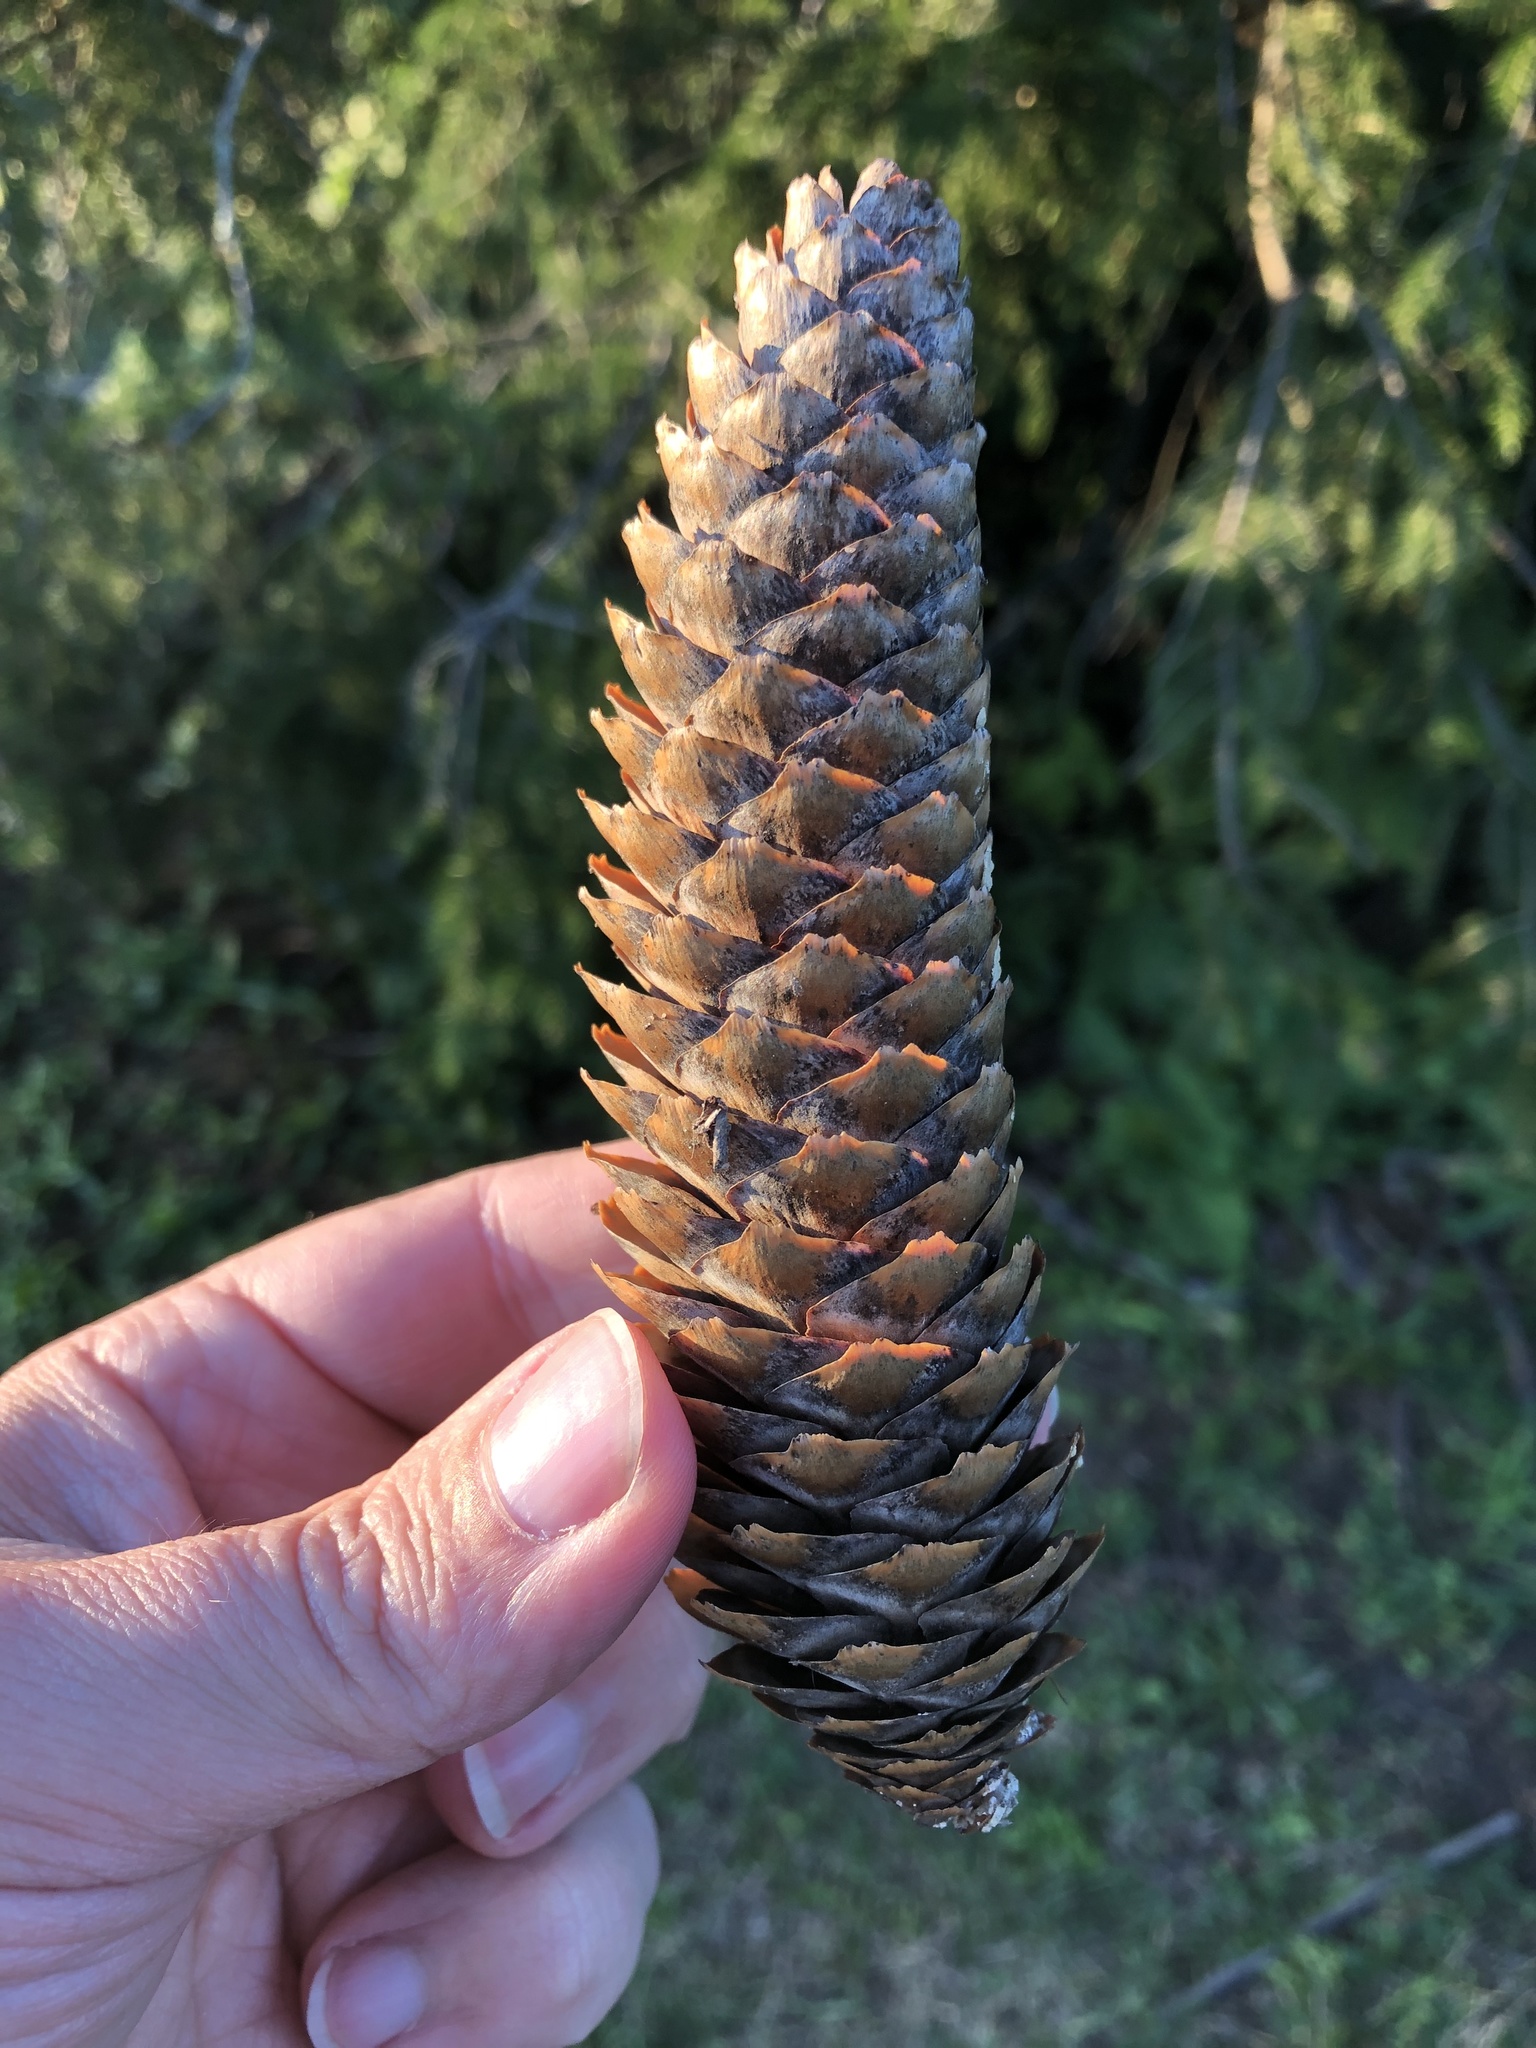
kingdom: Plantae
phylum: Tracheophyta
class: Pinopsida
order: Pinales
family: Pinaceae
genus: Picea
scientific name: Picea abies
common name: Norway spruce
